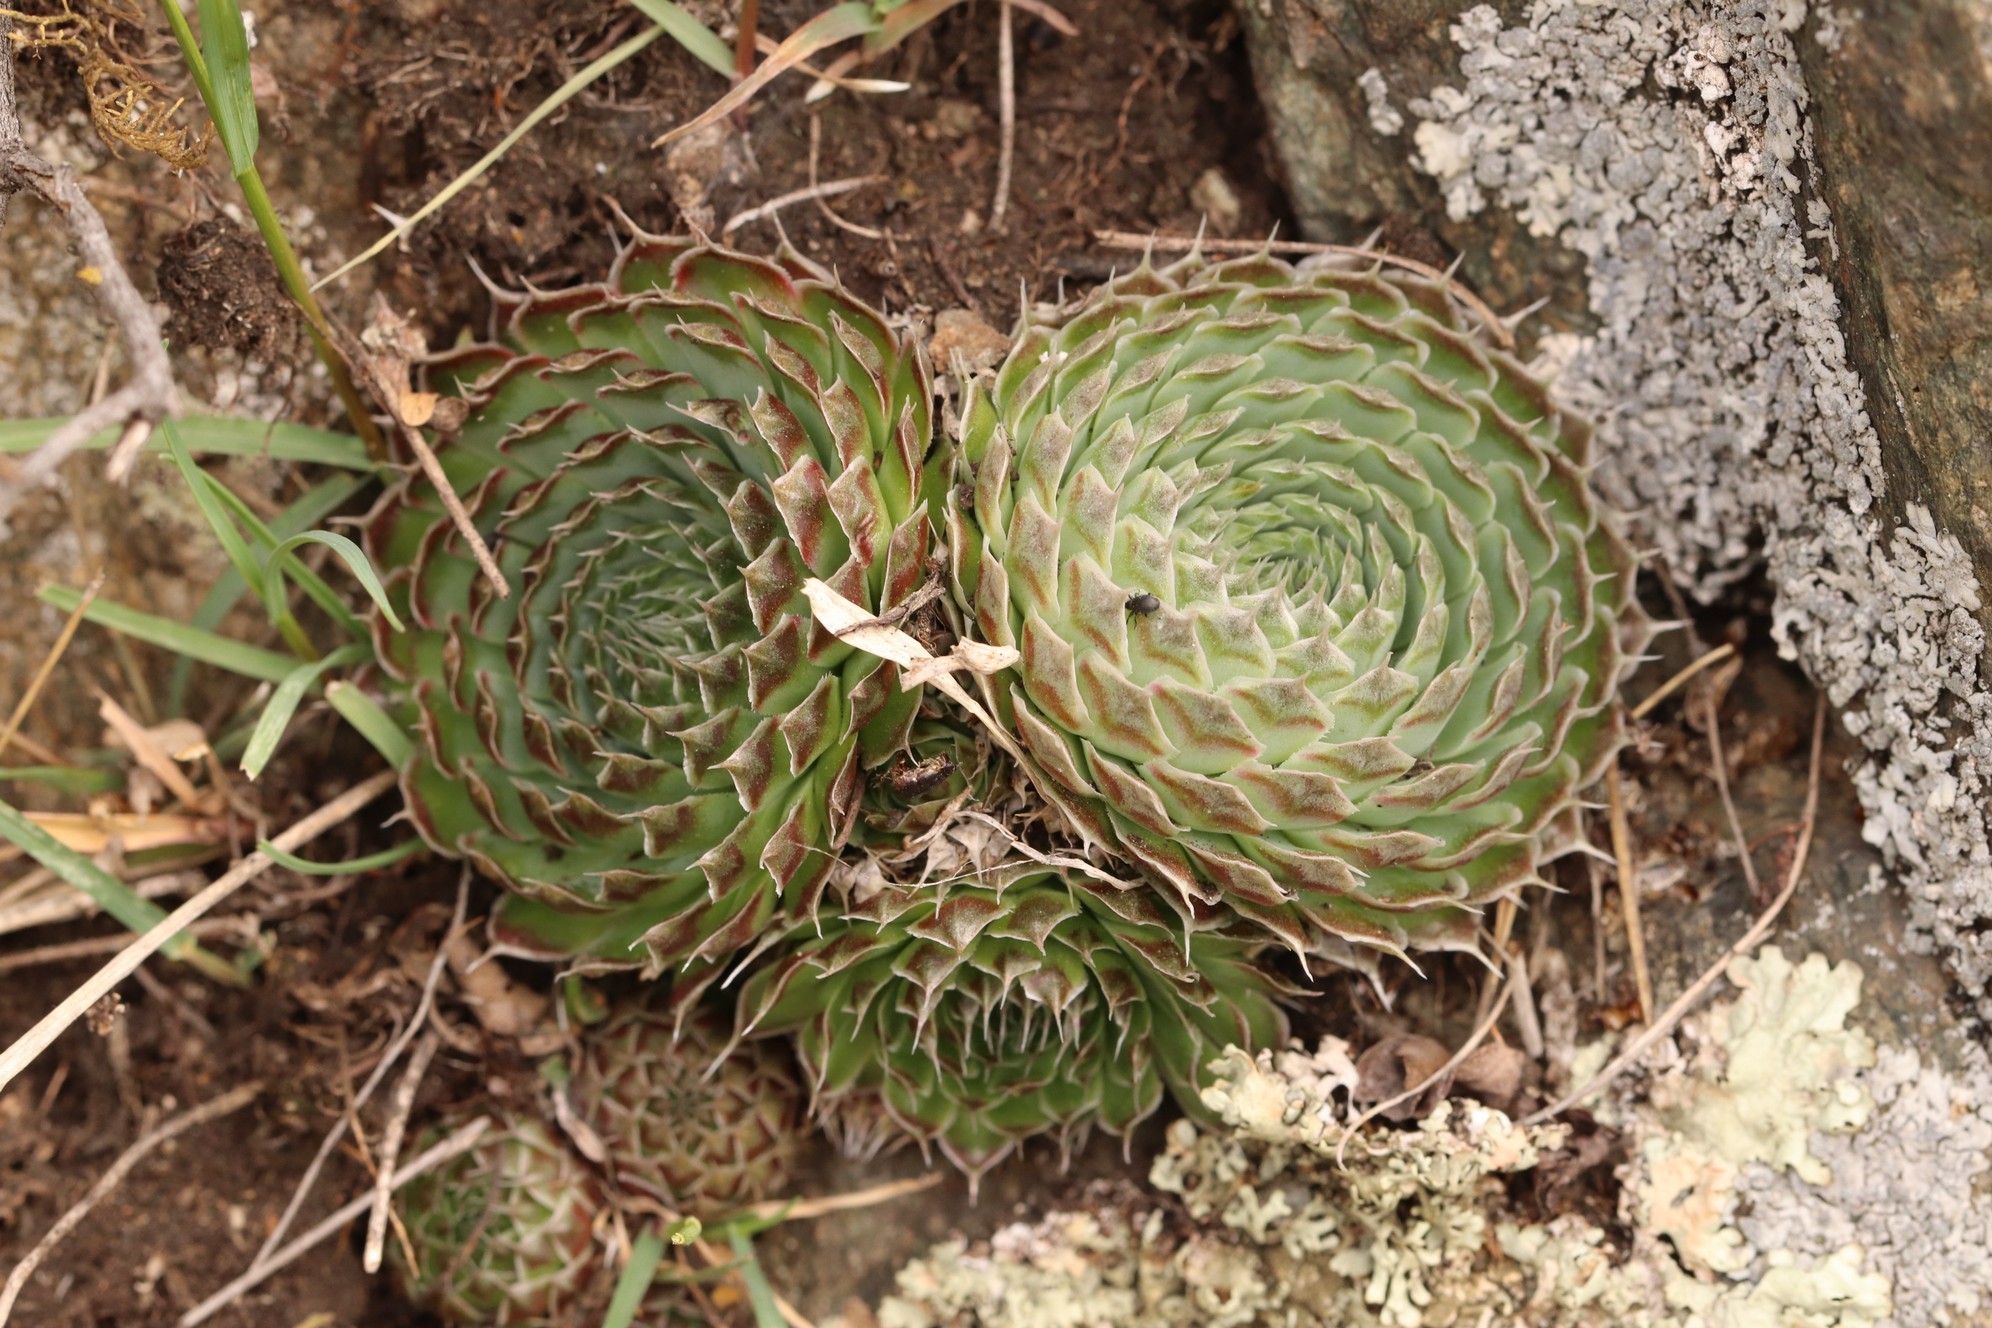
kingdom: Plantae
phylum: Tracheophyta
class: Magnoliopsida
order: Saxifragales
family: Crassulaceae
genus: Orostachys
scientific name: Orostachys spinosa
